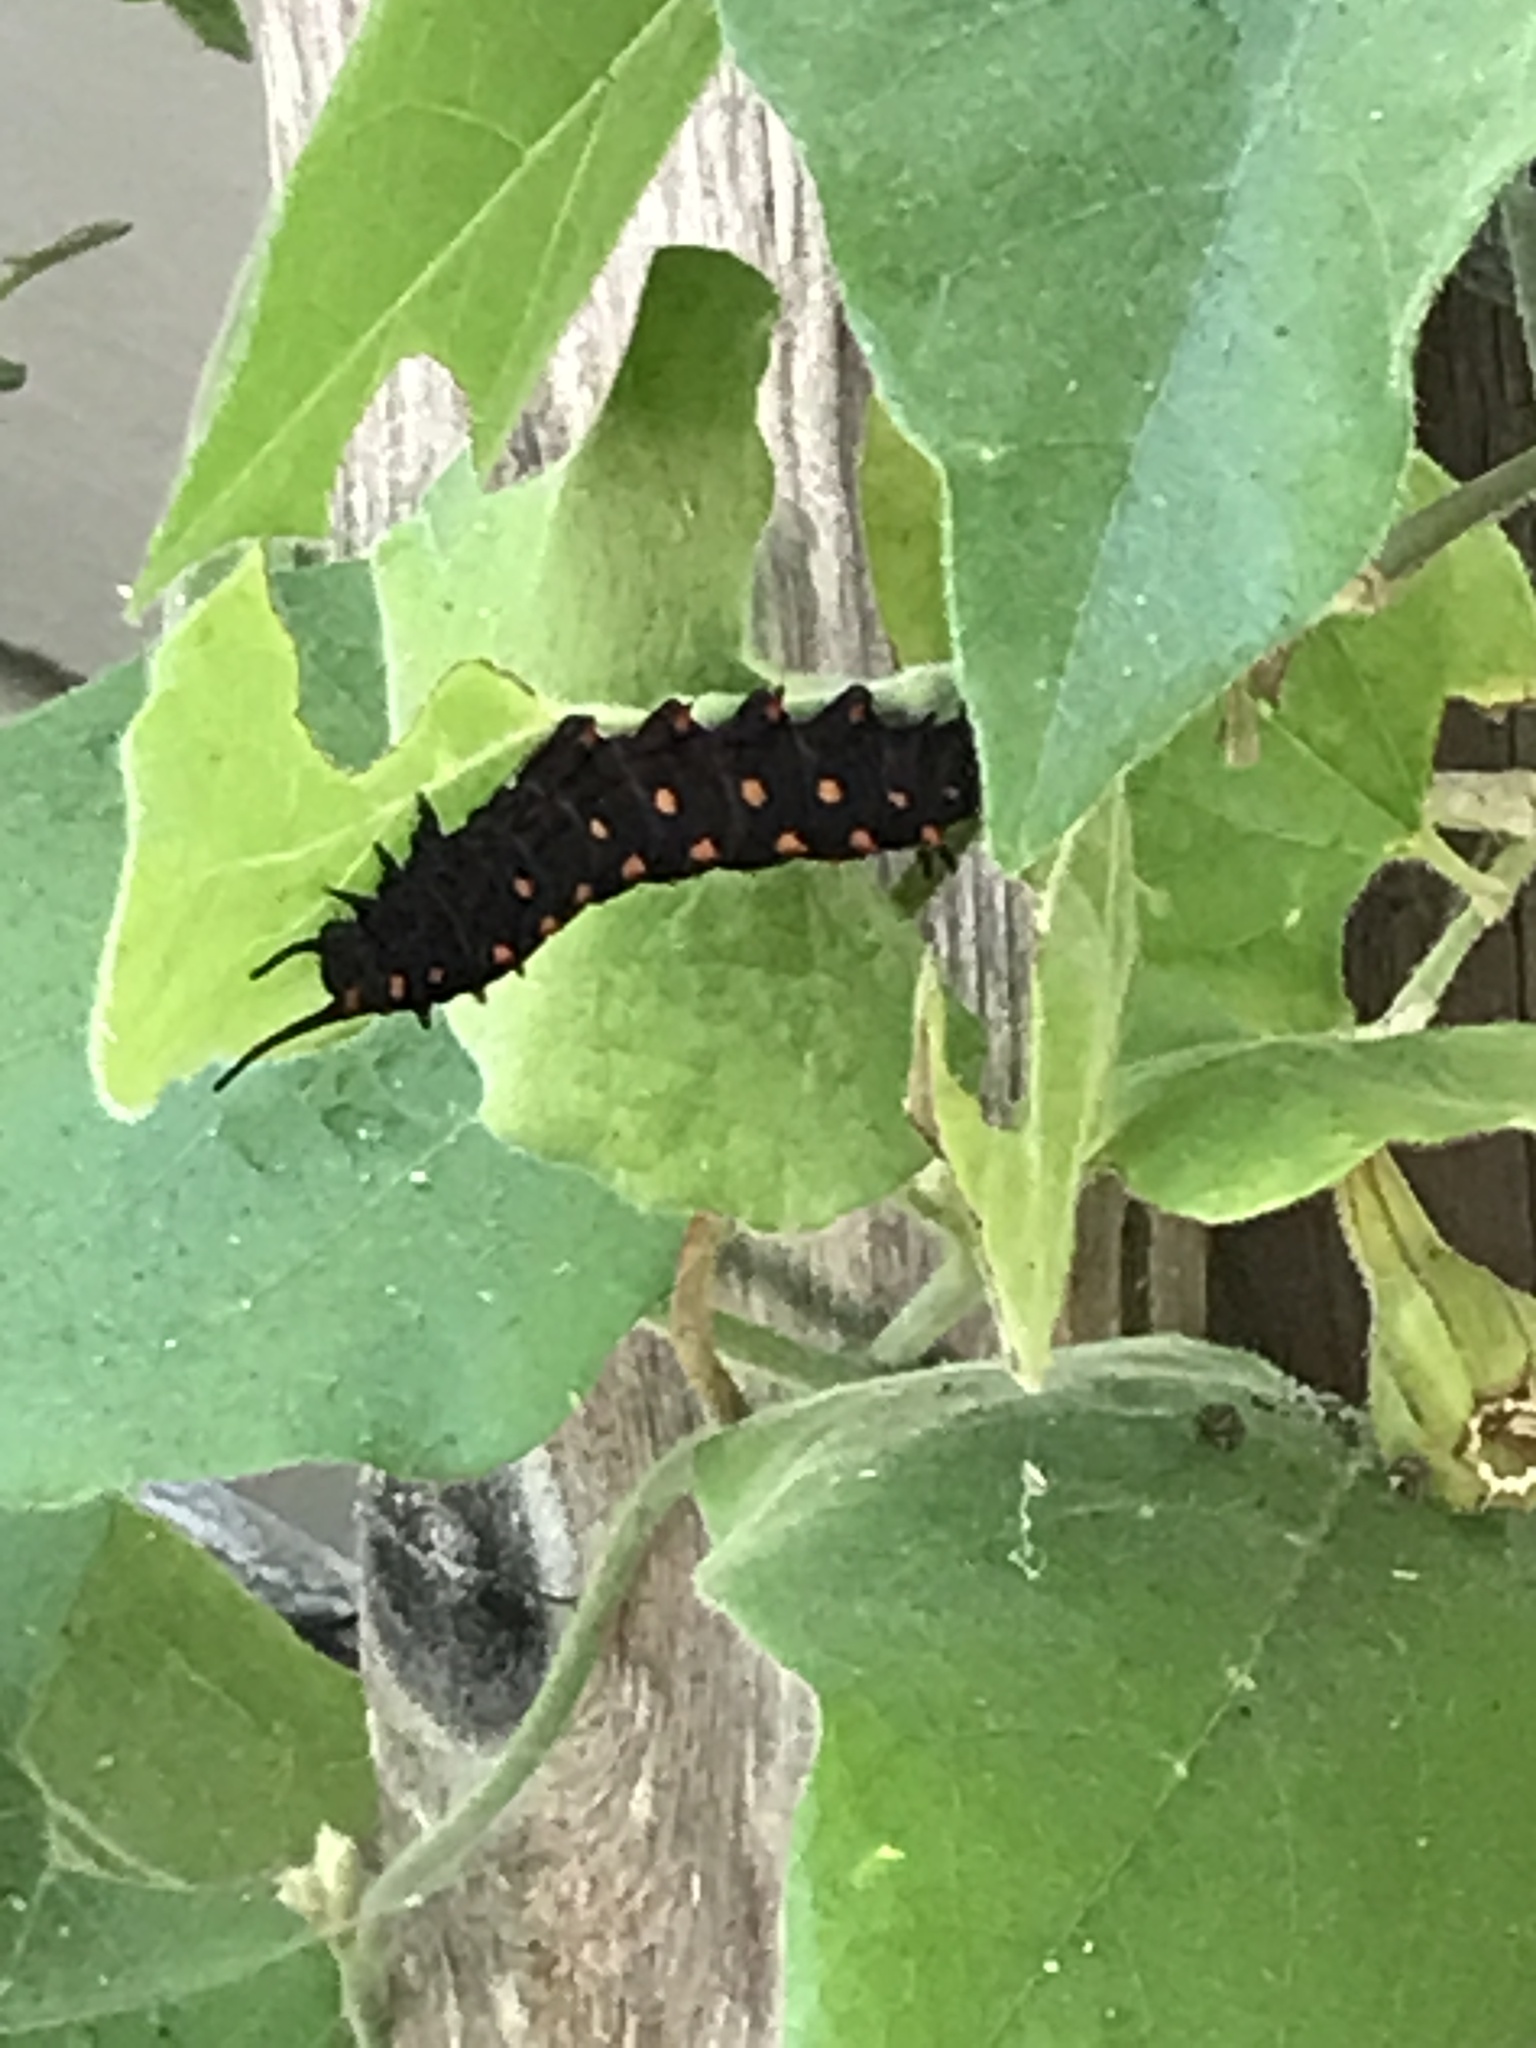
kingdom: Animalia
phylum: Arthropoda
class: Insecta
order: Lepidoptera
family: Papilionidae
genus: Battus
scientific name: Battus philenor
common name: Pipevine swallowtail
